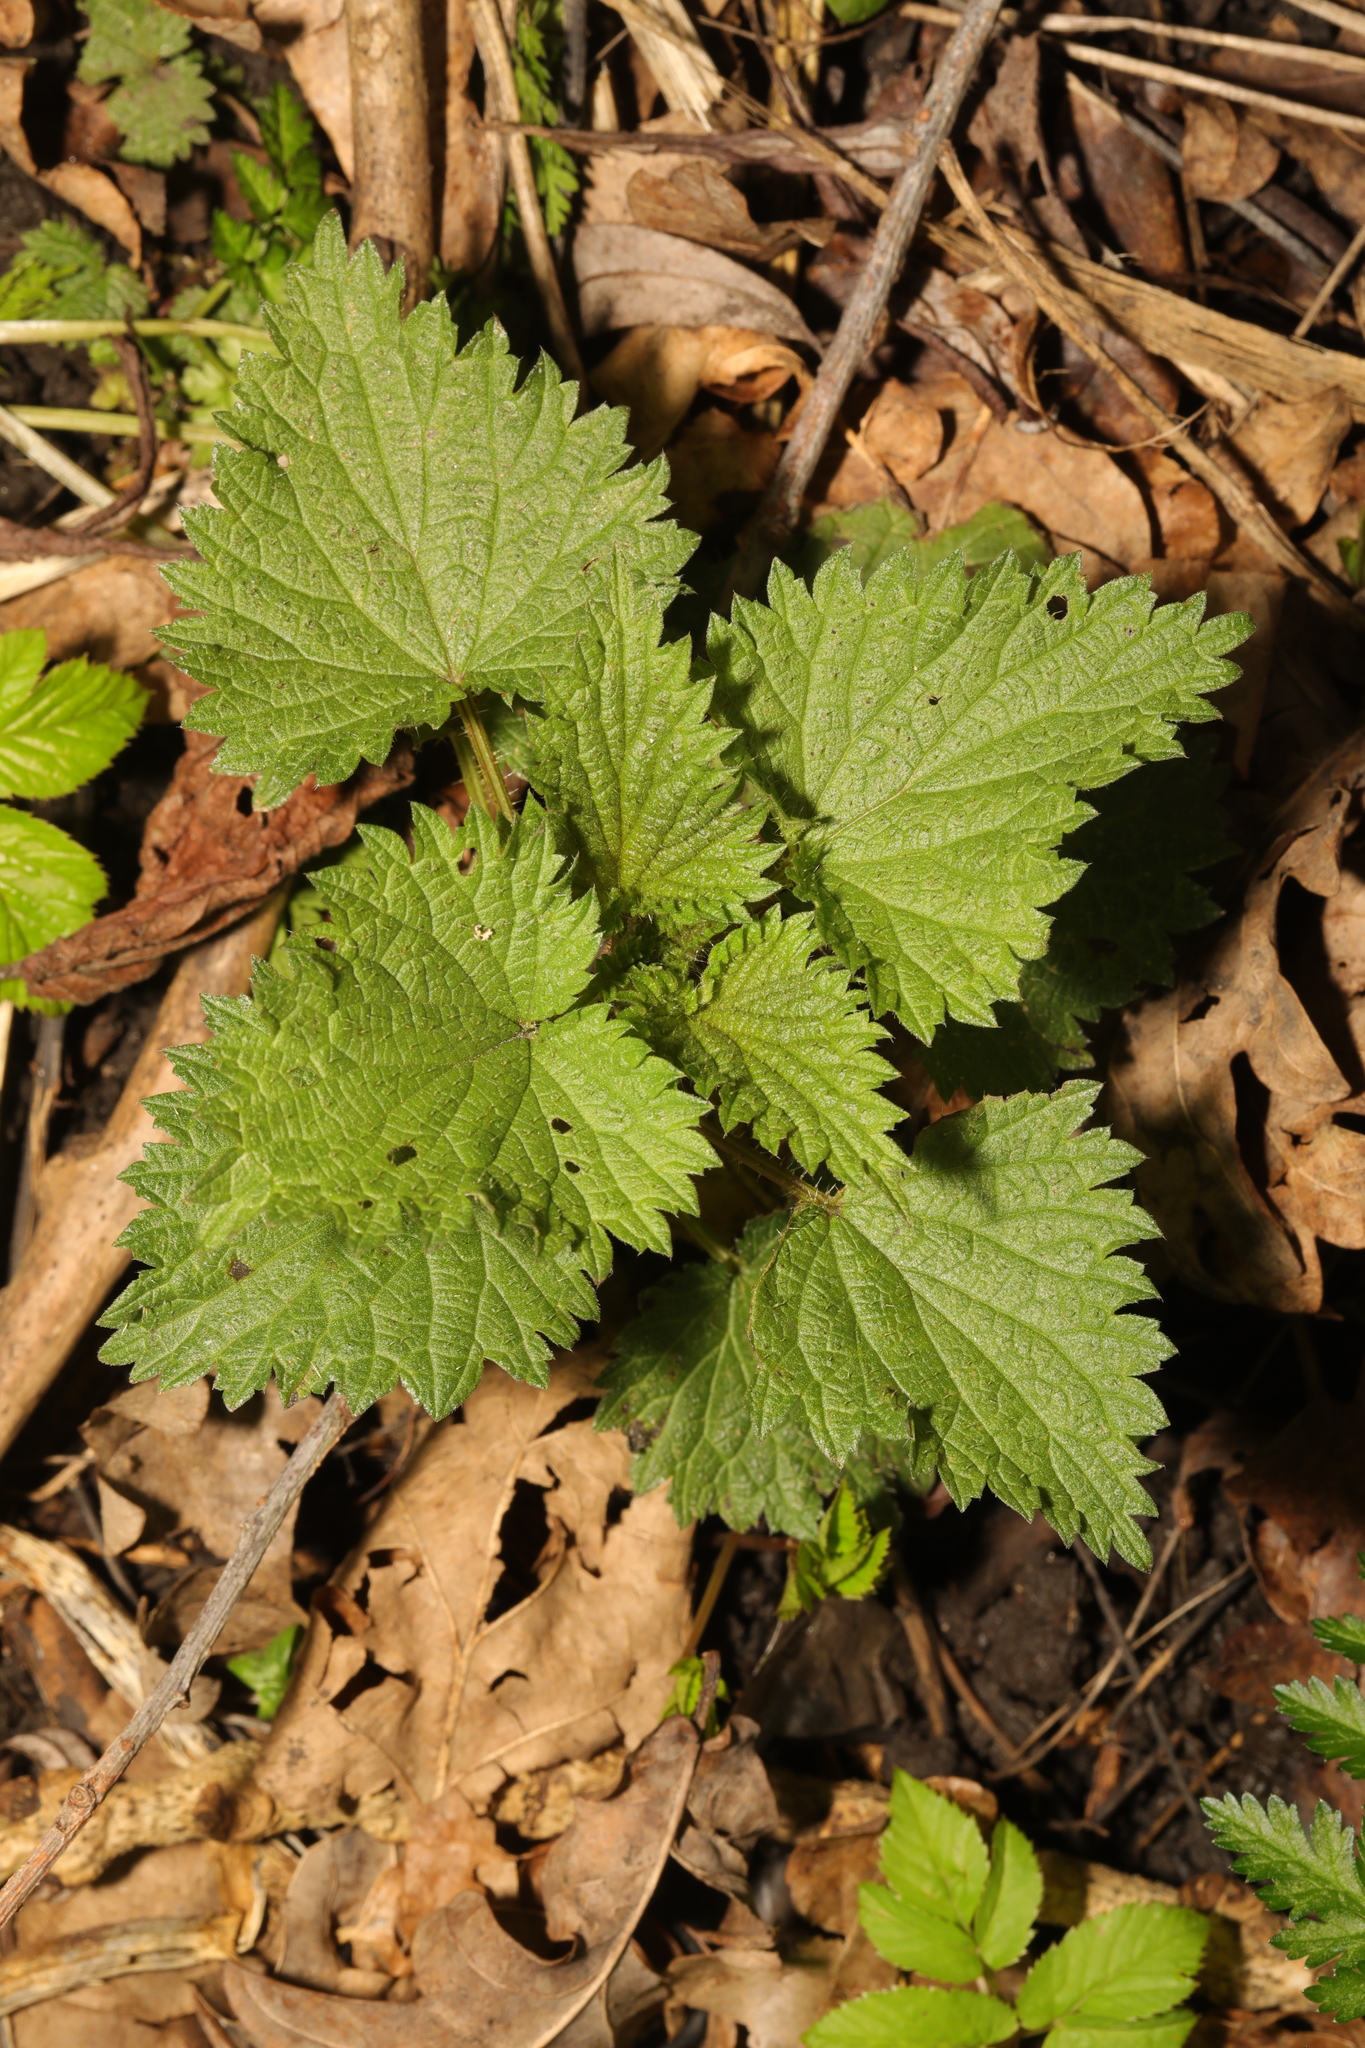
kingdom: Plantae
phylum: Tracheophyta
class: Magnoliopsida
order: Rosales
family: Urticaceae
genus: Urtica
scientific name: Urtica dioica
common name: Common nettle
